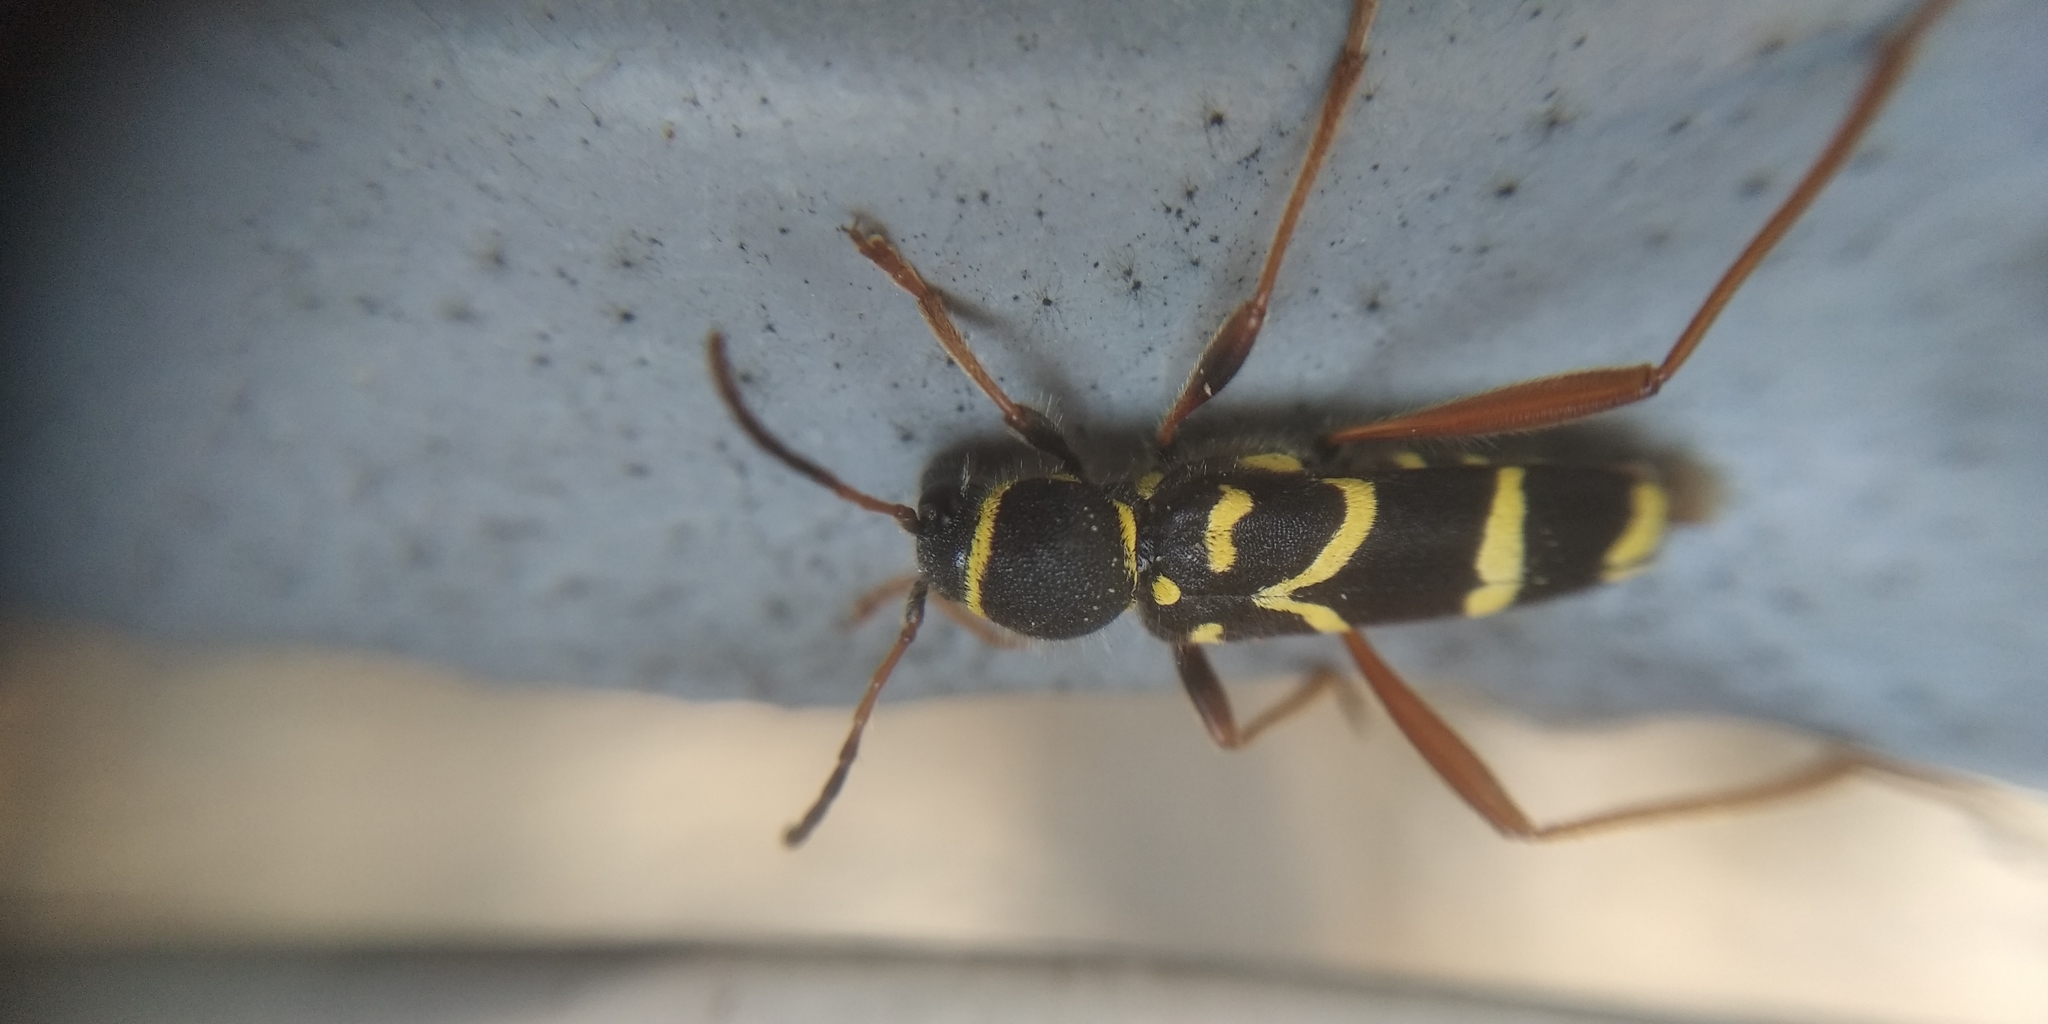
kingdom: Animalia
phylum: Arthropoda
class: Insecta
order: Coleoptera
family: Cerambycidae
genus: Clytus
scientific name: Clytus arietis
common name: Wasp beetle
